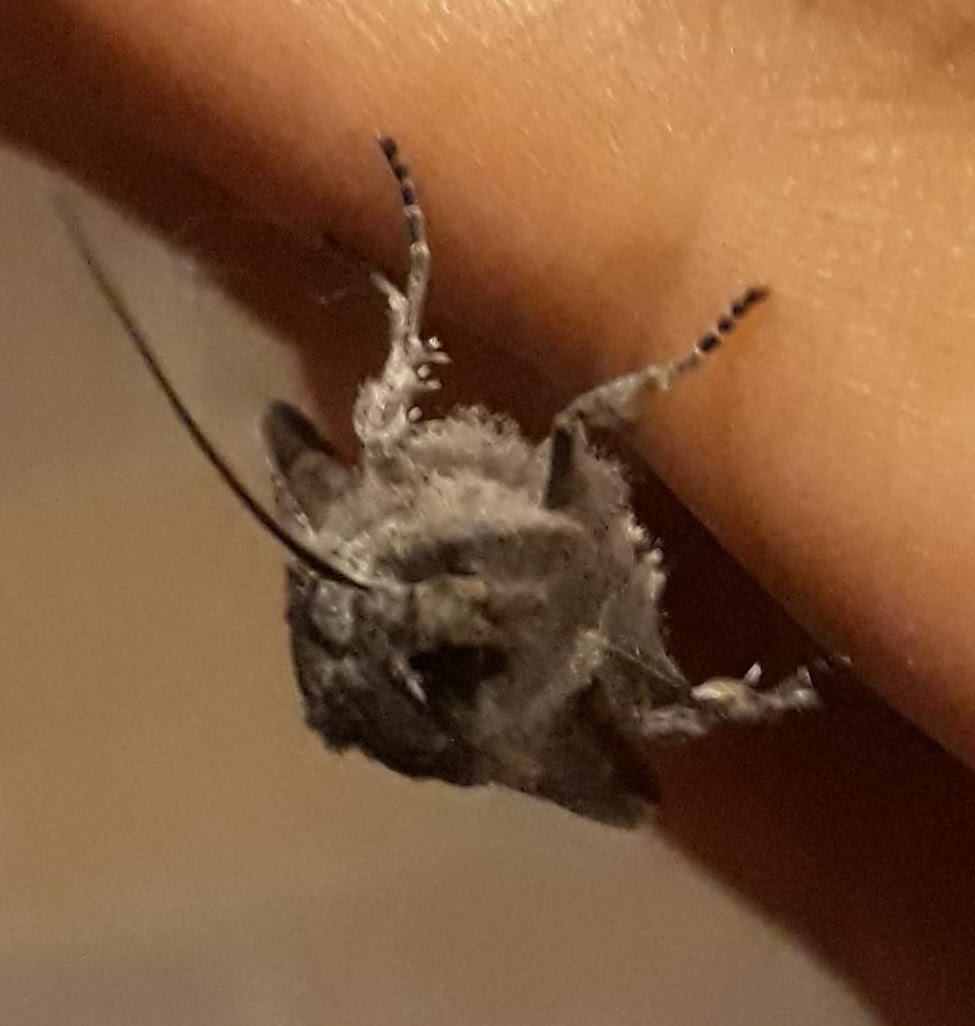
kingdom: Animalia
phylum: Arthropoda
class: Insecta
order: Lepidoptera
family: Noctuidae
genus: Lithophane
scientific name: Lithophane grotei
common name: Grote's pinion moth
